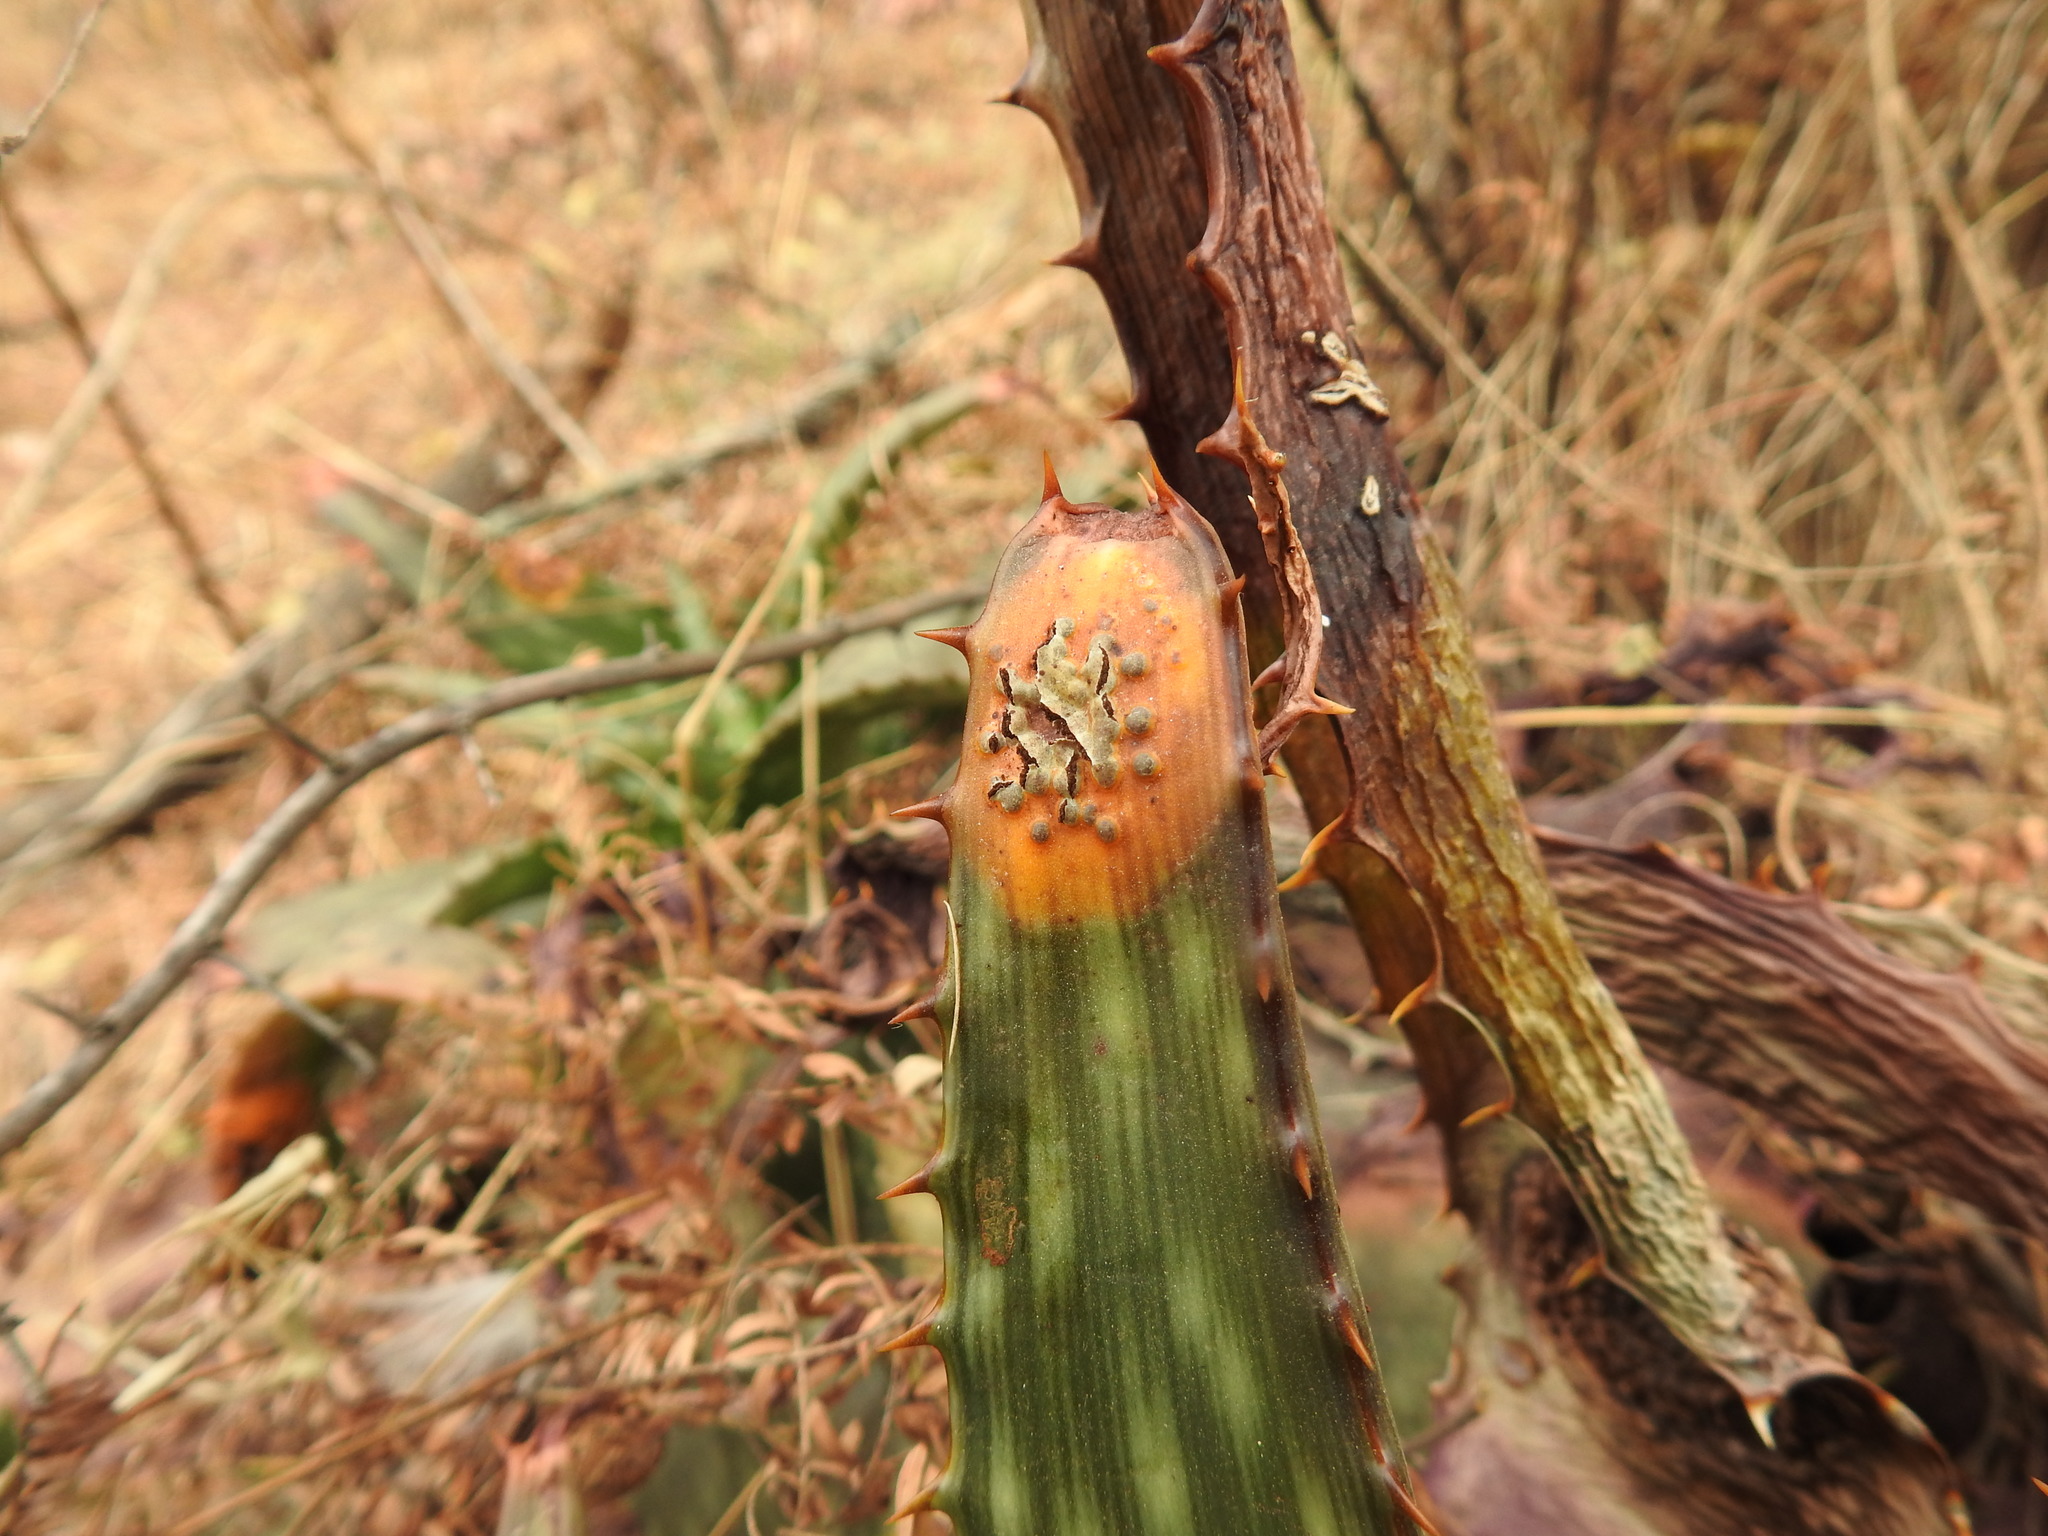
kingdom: Fungi
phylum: Basidiomycota
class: Pucciniomycetes
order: Pucciniales
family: Pucciniaceae
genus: Uromyces
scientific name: Uromyces aloes
